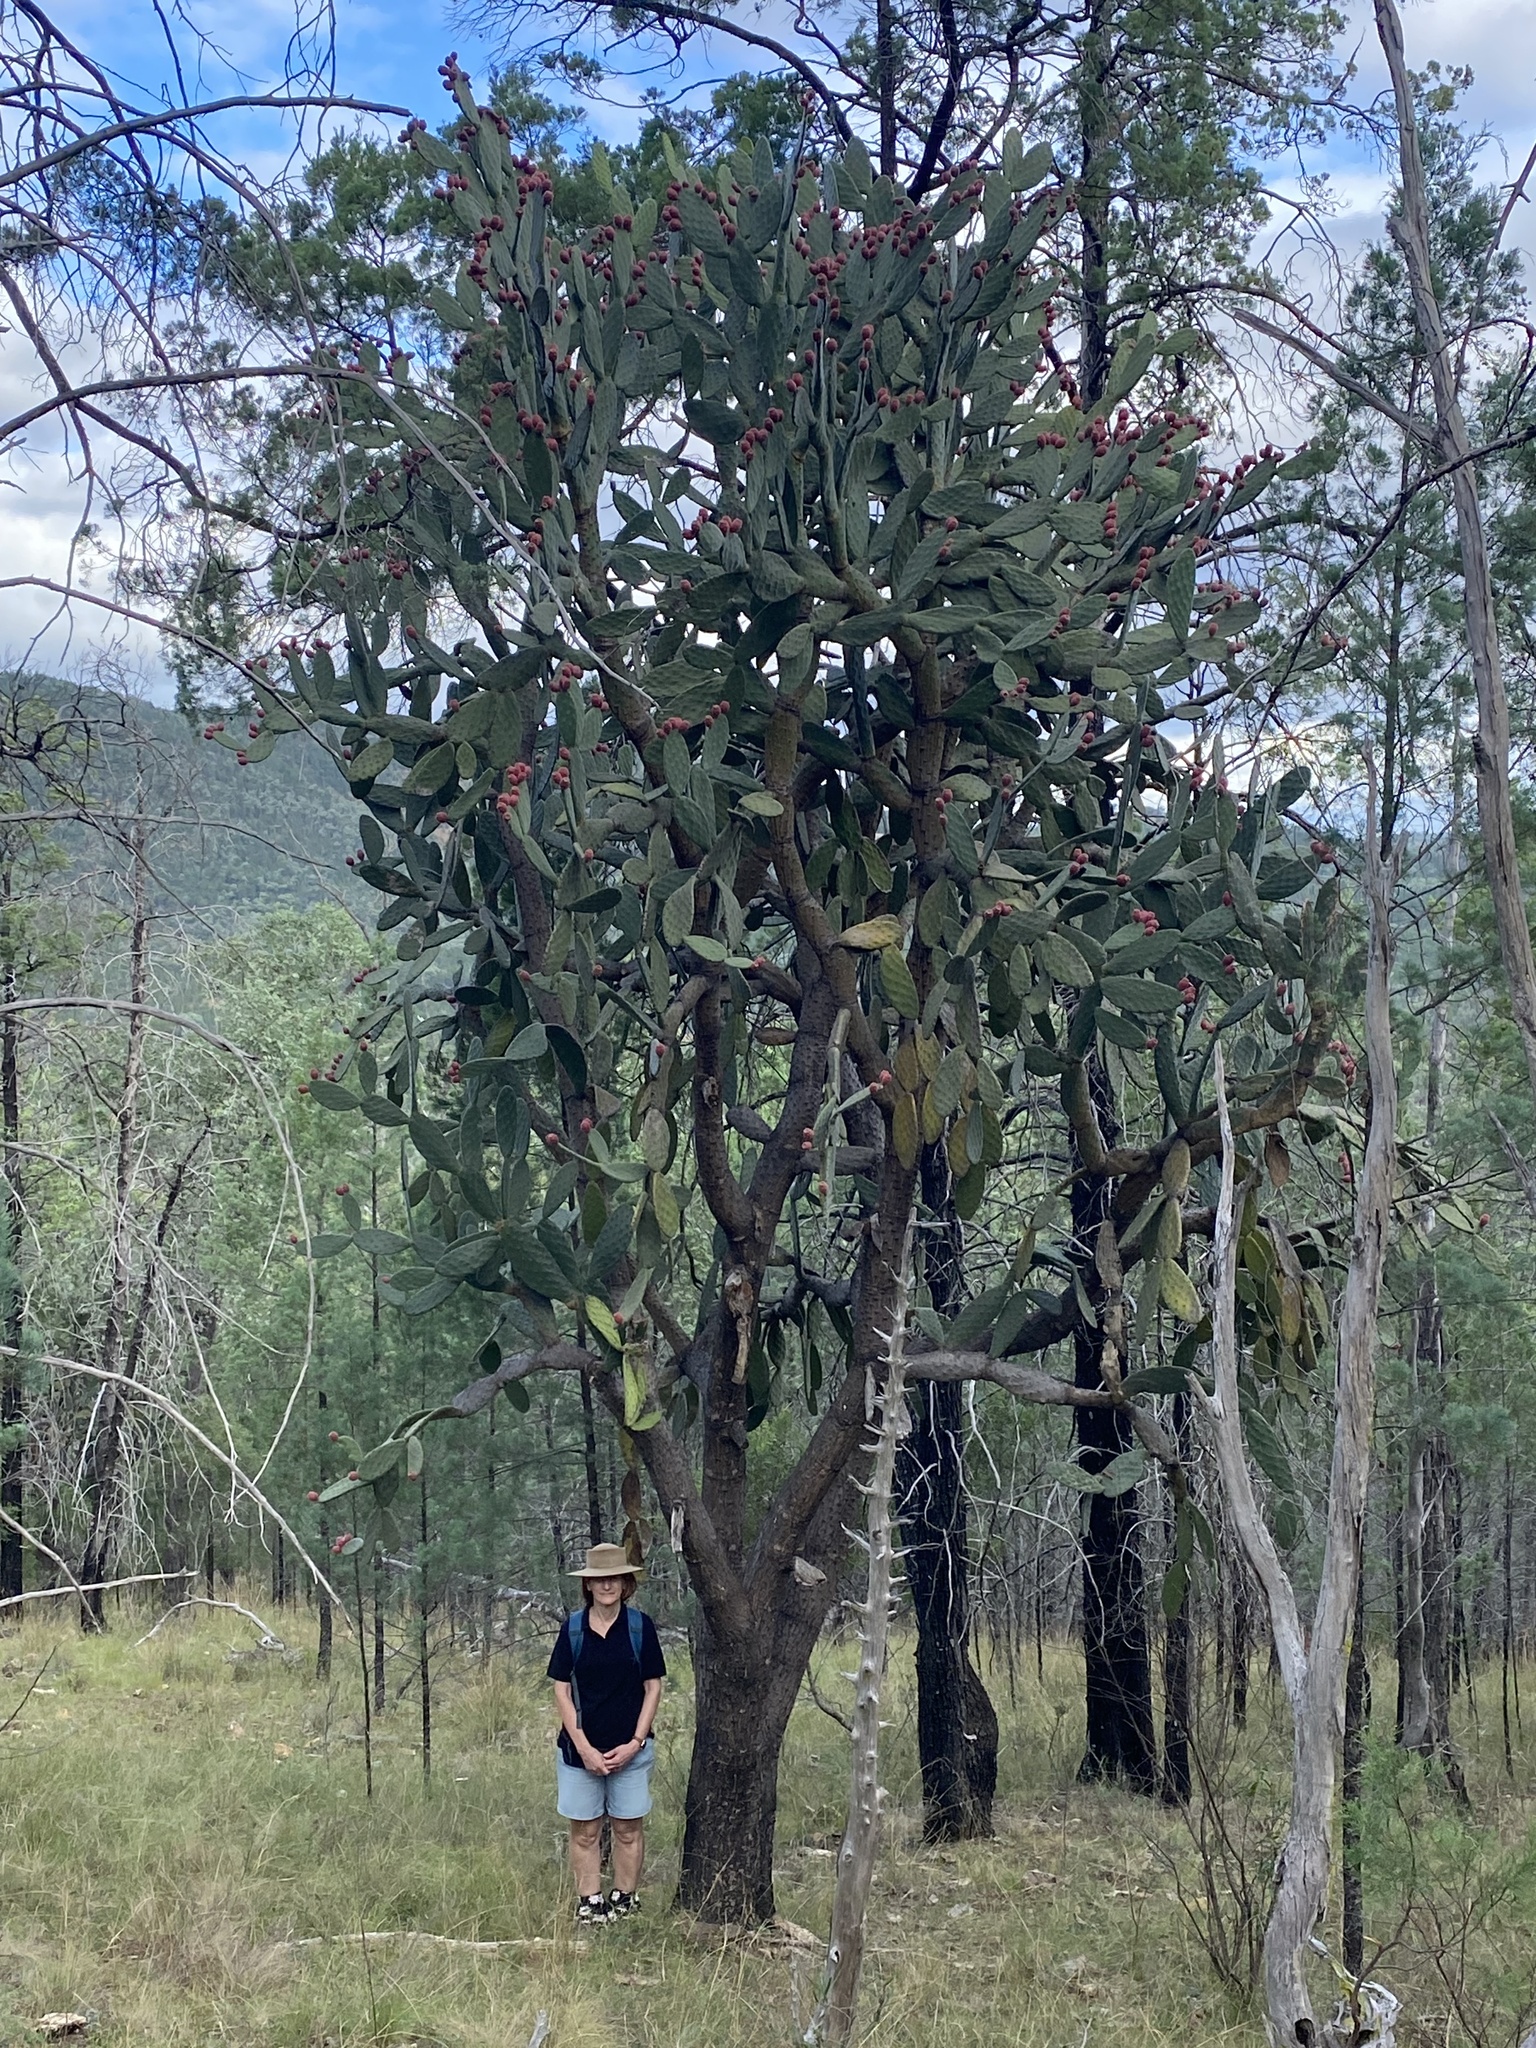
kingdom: Plantae
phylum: Tracheophyta
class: Magnoliopsida
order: Caryophyllales
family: Cactaceae
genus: Opuntia
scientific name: Opuntia tomentosa
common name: Woollyjoint pricklypear
